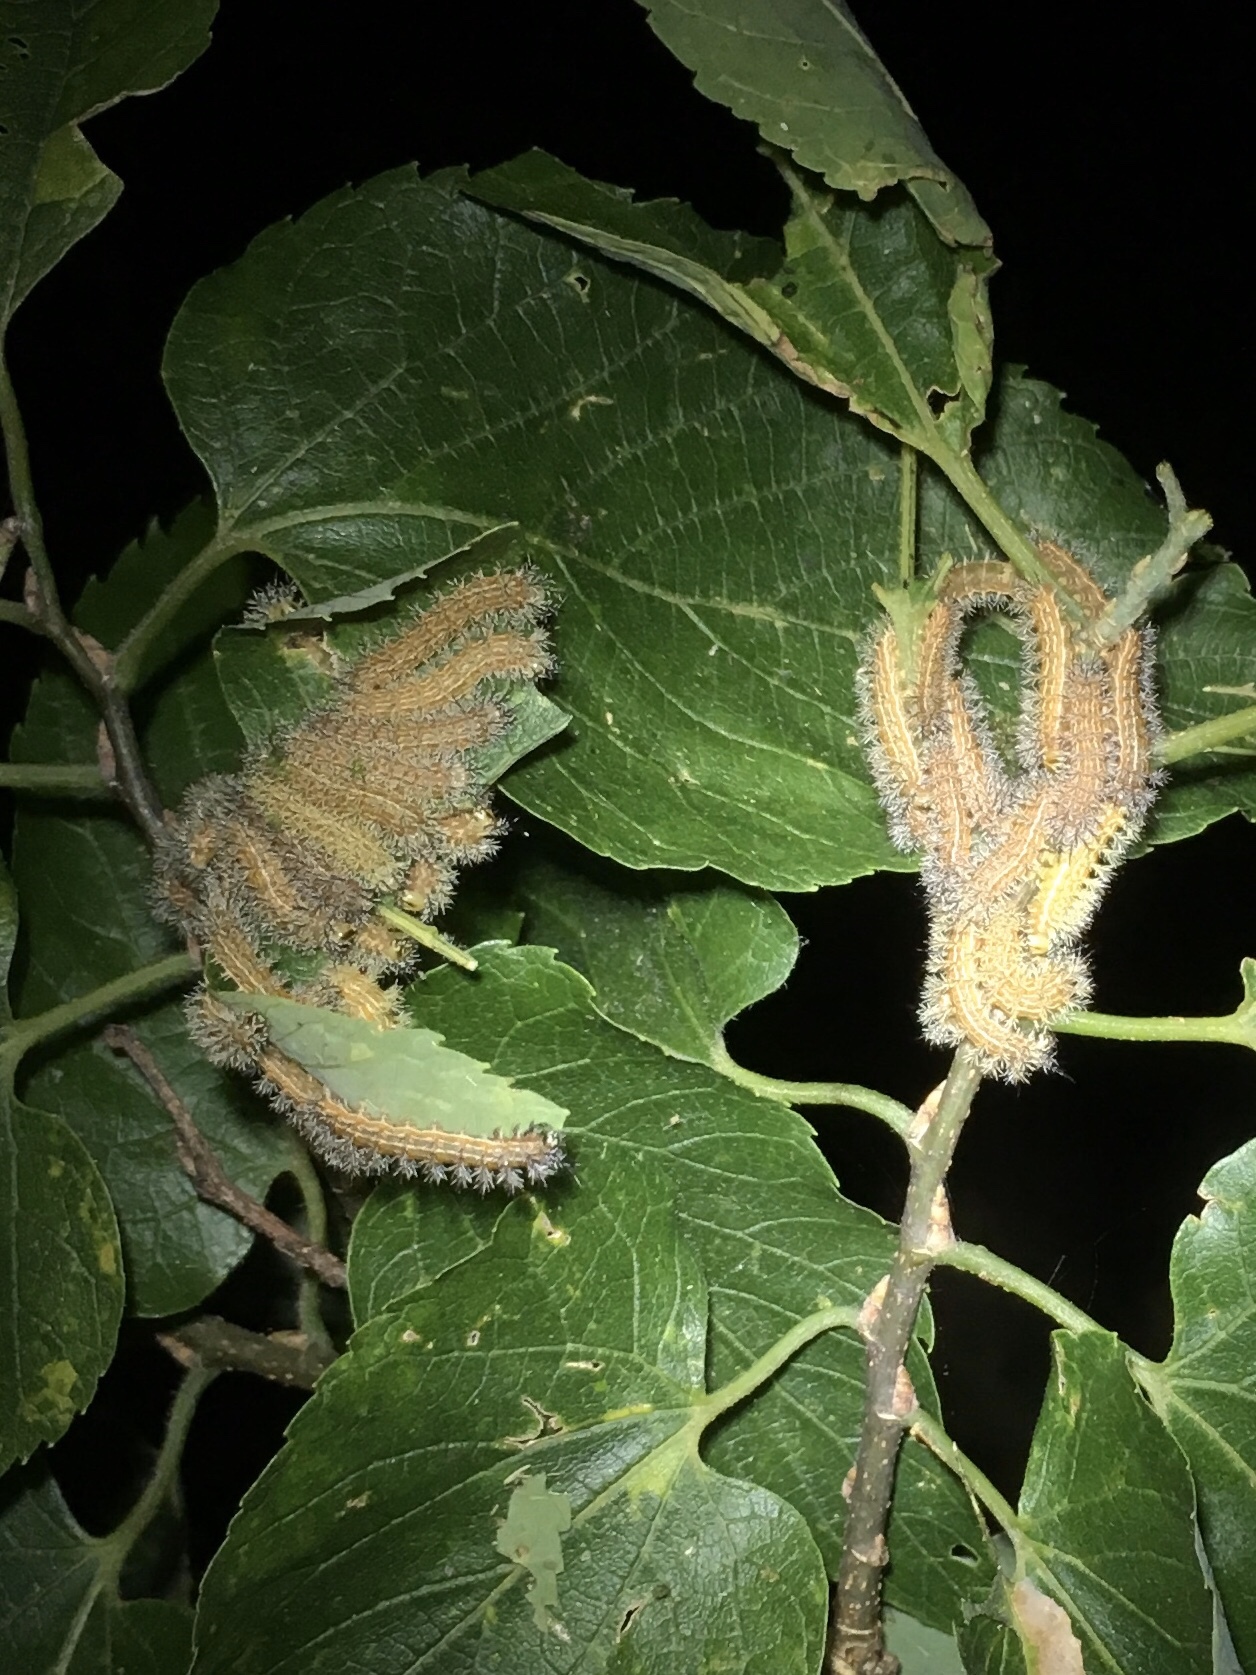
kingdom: Animalia
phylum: Arthropoda
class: Insecta
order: Lepidoptera
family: Saturniidae
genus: Automeris
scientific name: Automeris io
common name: Io moth
